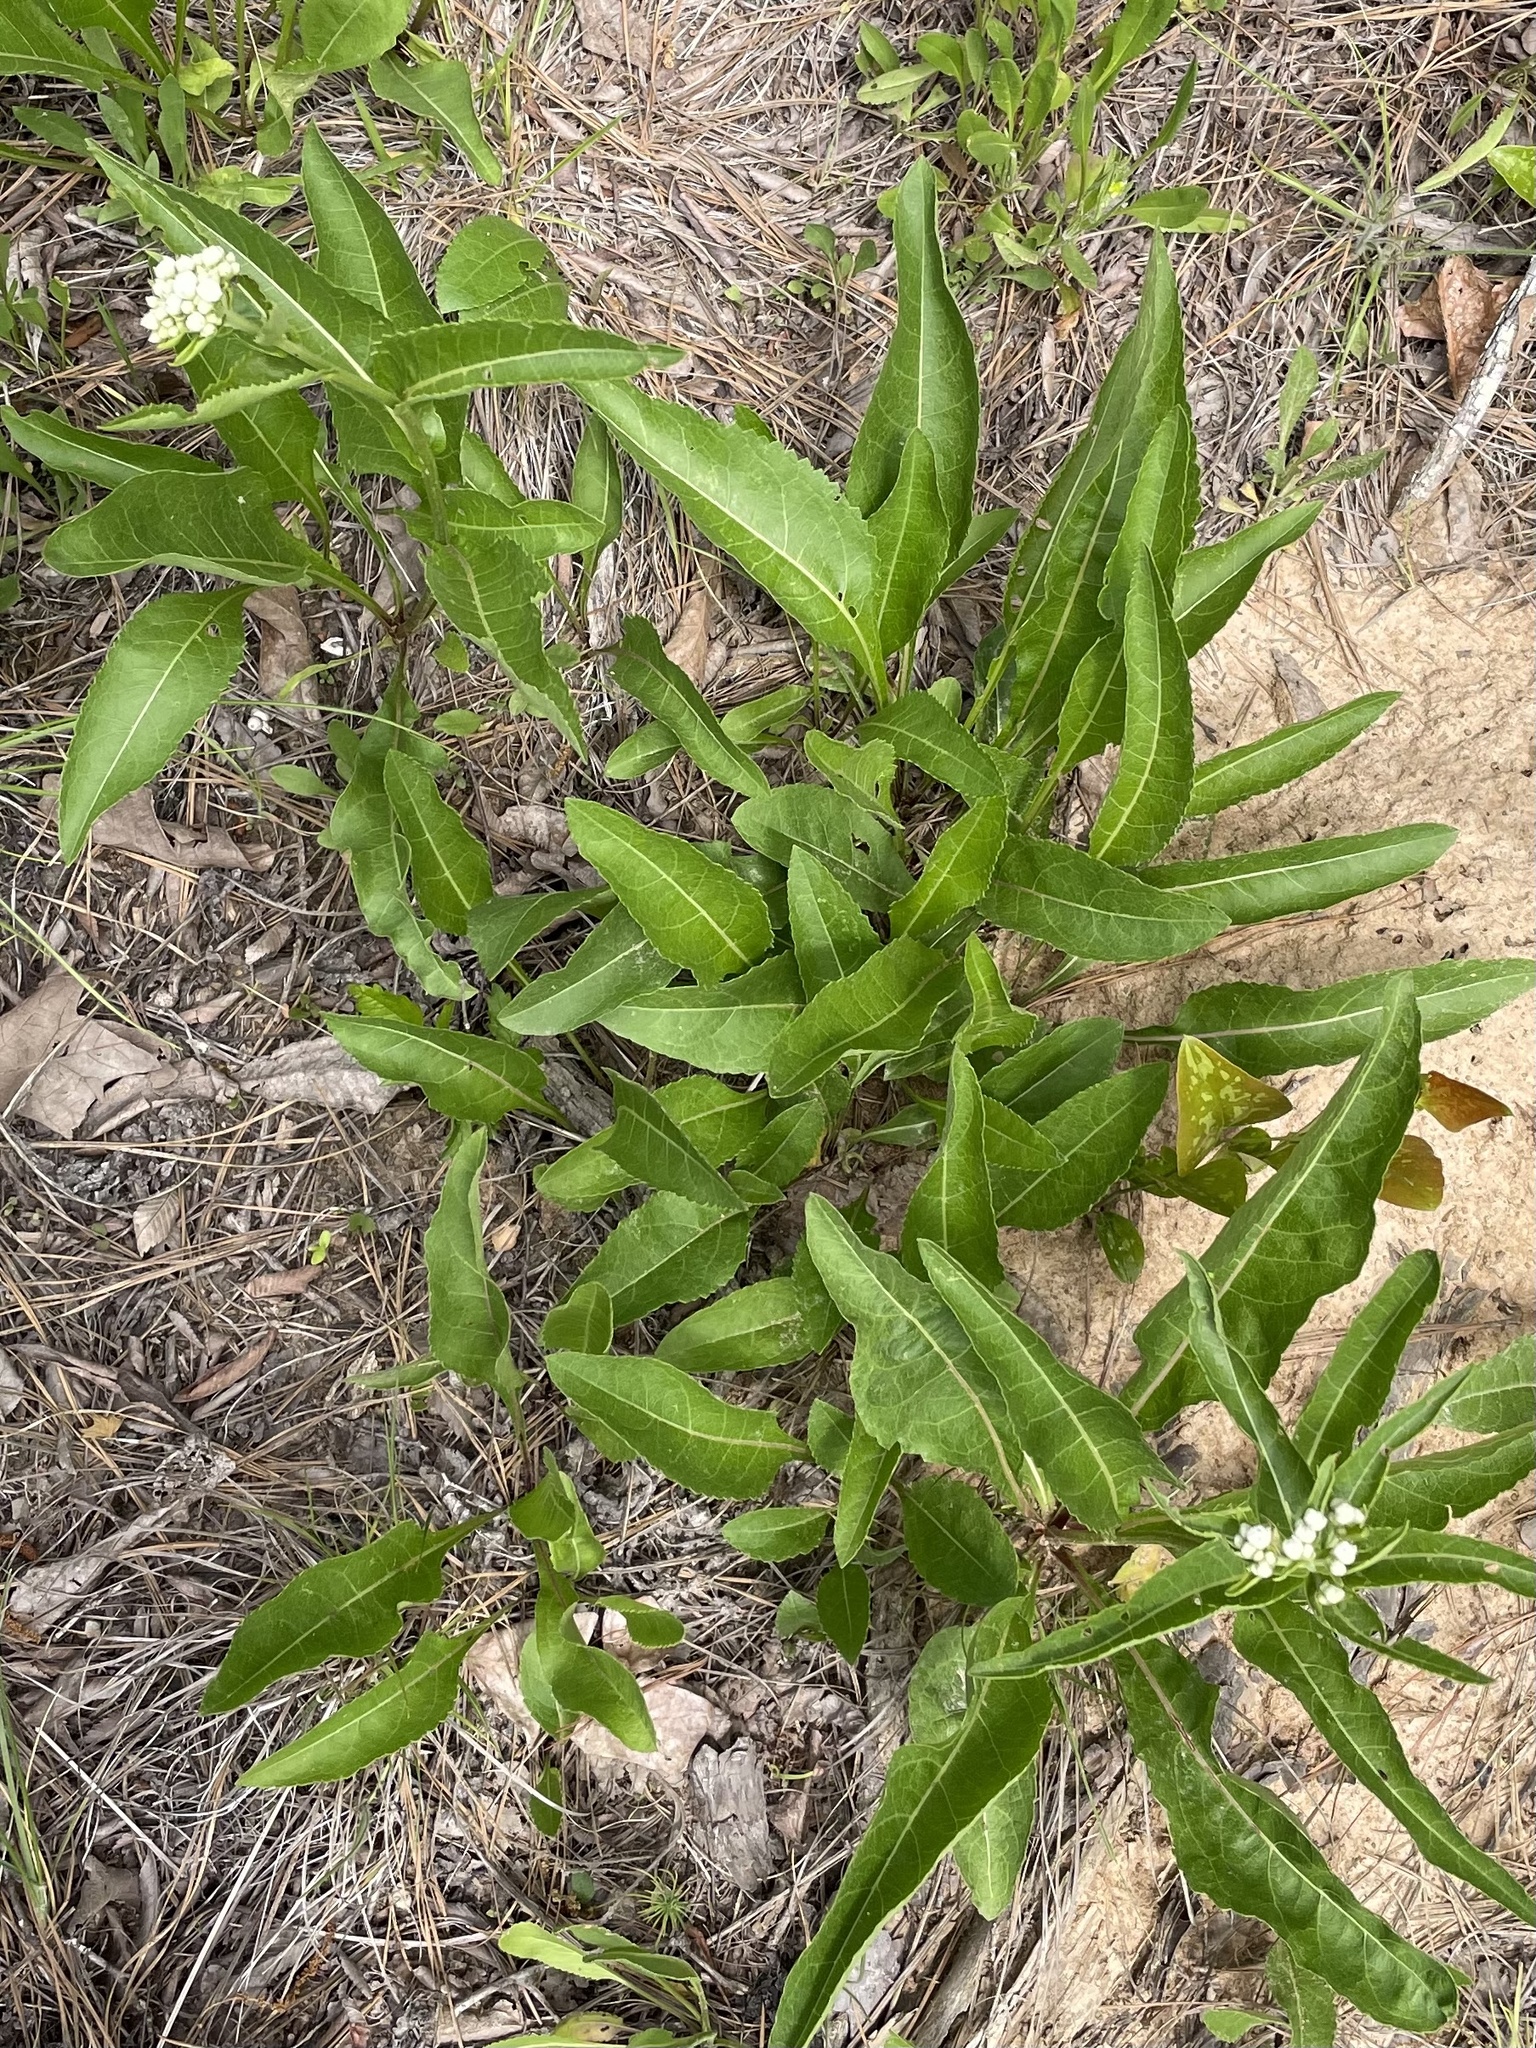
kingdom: Plantae
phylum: Tracheophyta
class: Magnoliopsida
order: Asterales
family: Asteraceae
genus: Parthenium
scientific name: Parthenium integrifolium
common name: American feverfew
